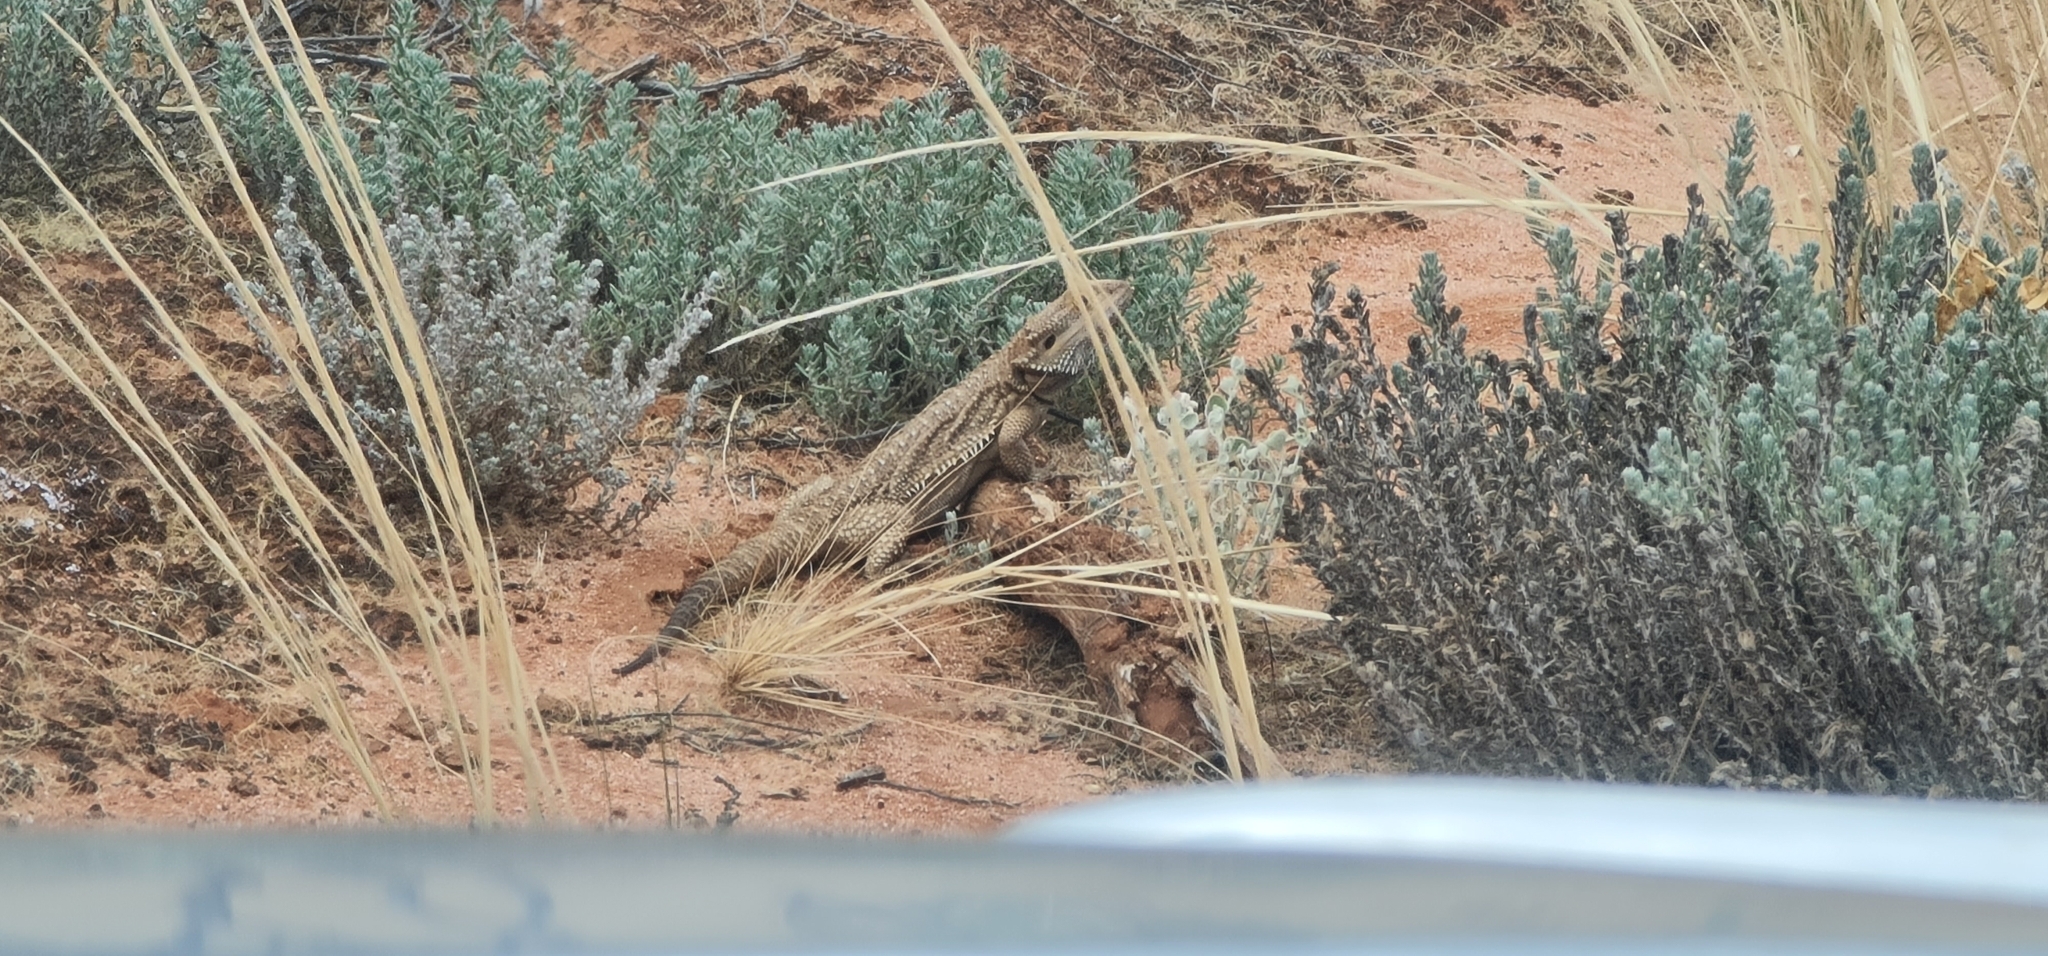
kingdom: Animalia
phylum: Chordata
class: Squamata
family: Agamidae
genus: Pogona
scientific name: Pogona vitticeps
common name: Central bearded dragon
